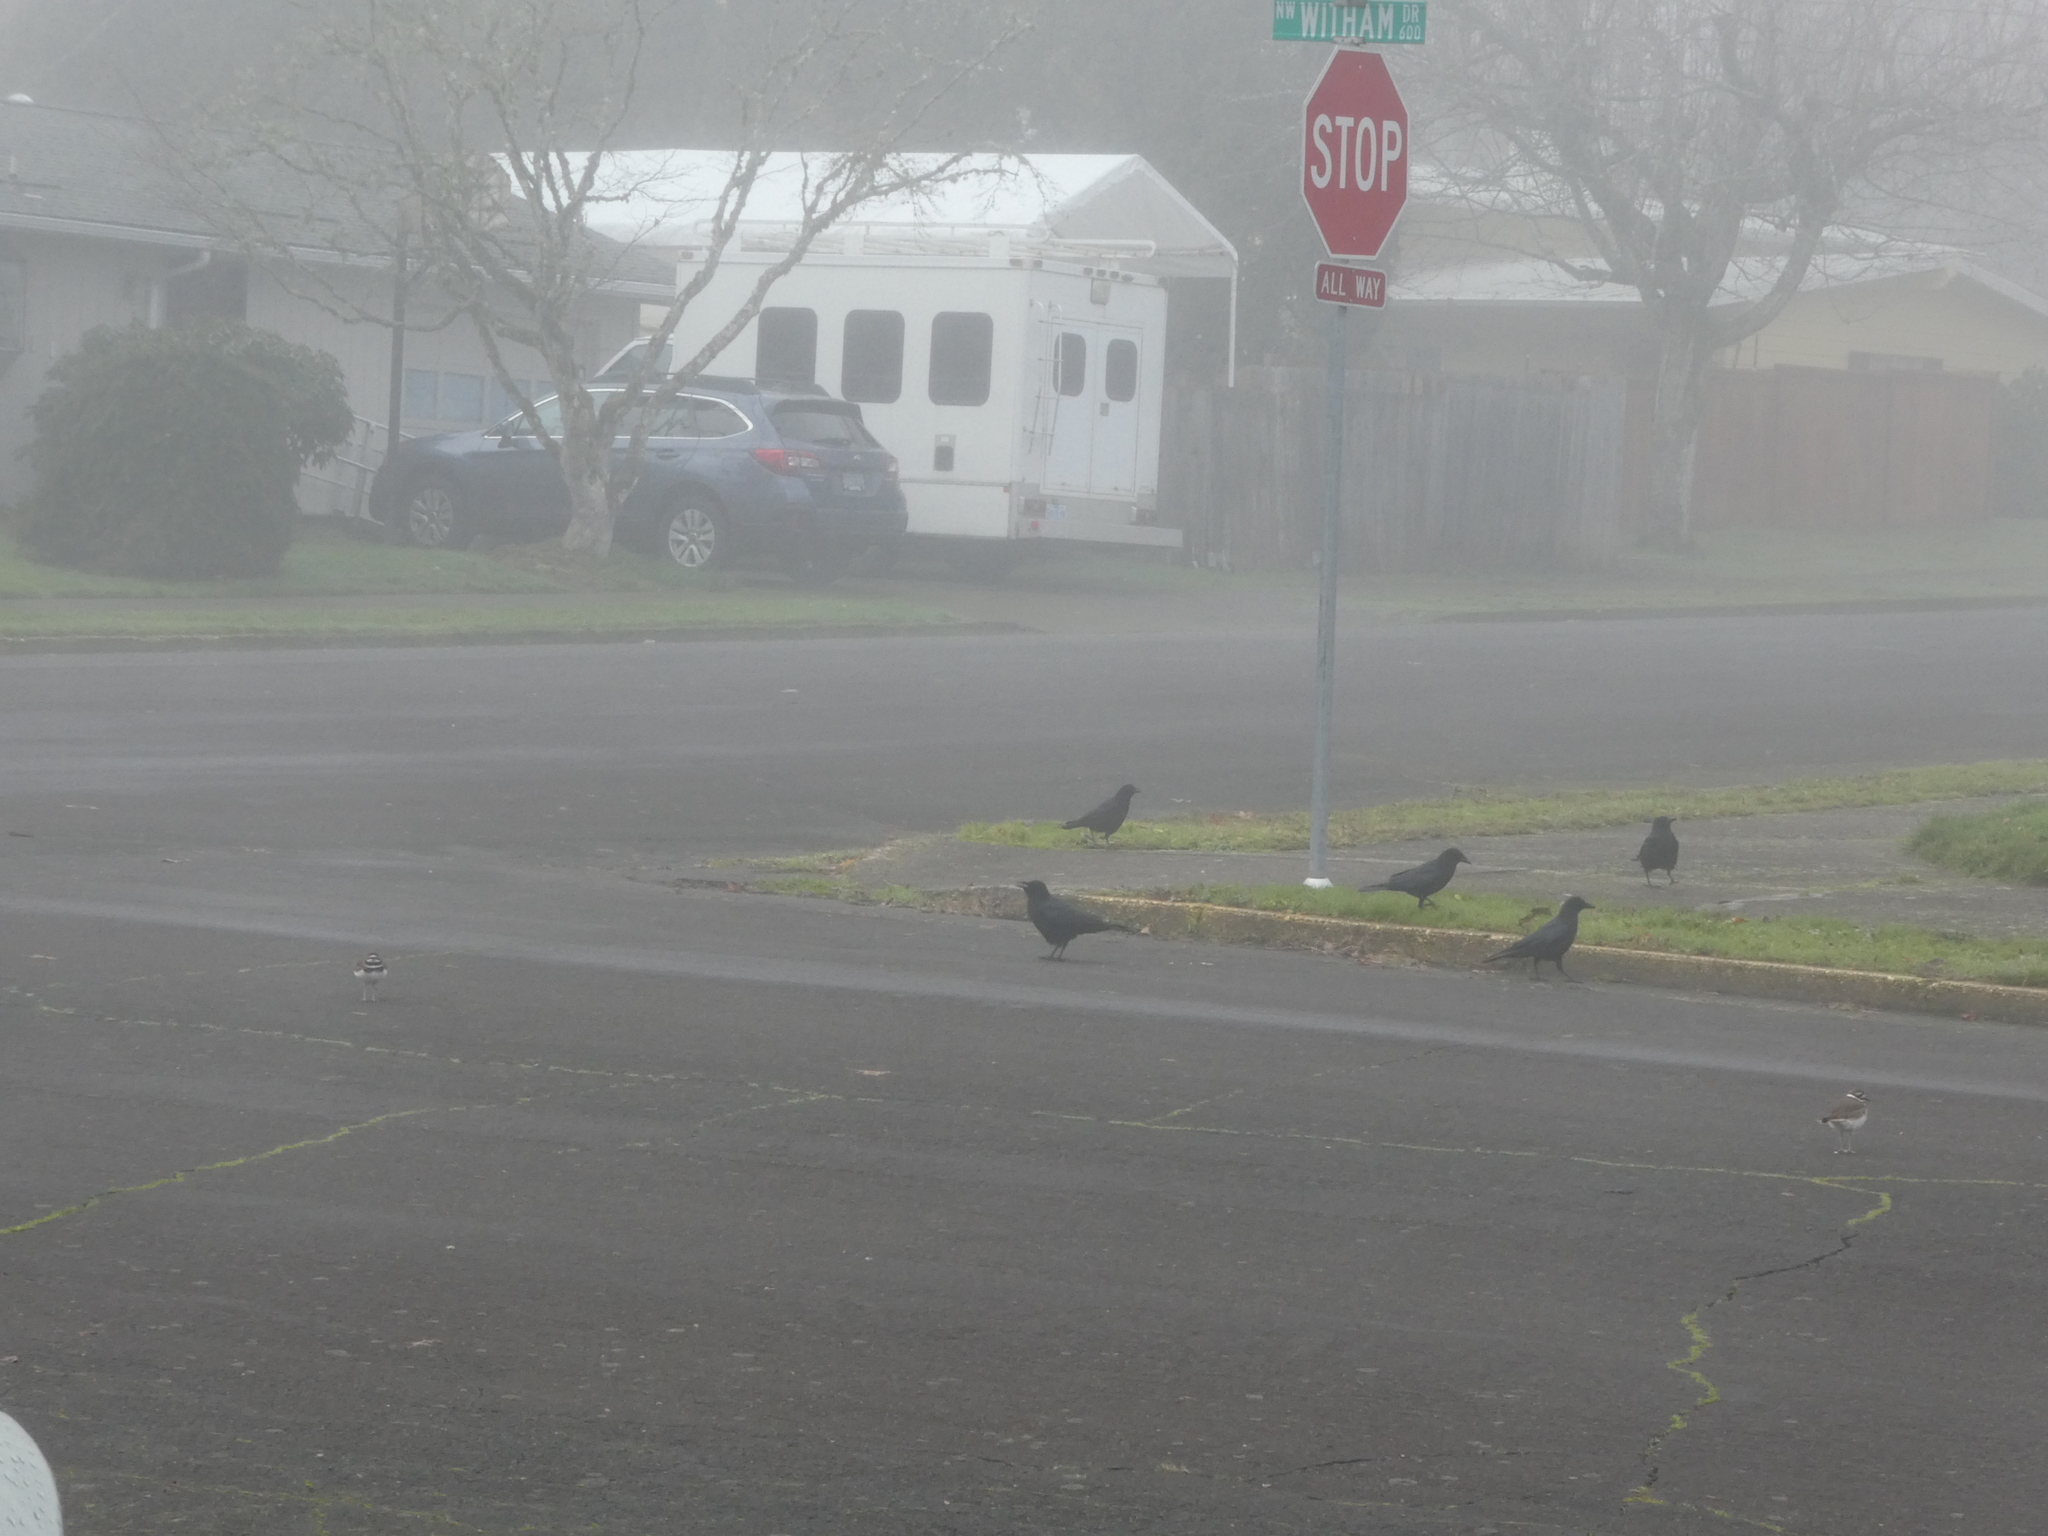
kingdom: Animalia
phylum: Chordata
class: Aves
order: Charadriiformes
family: Charadriidae
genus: Charadrius
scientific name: Charadrius vociferus
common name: Killdeer
